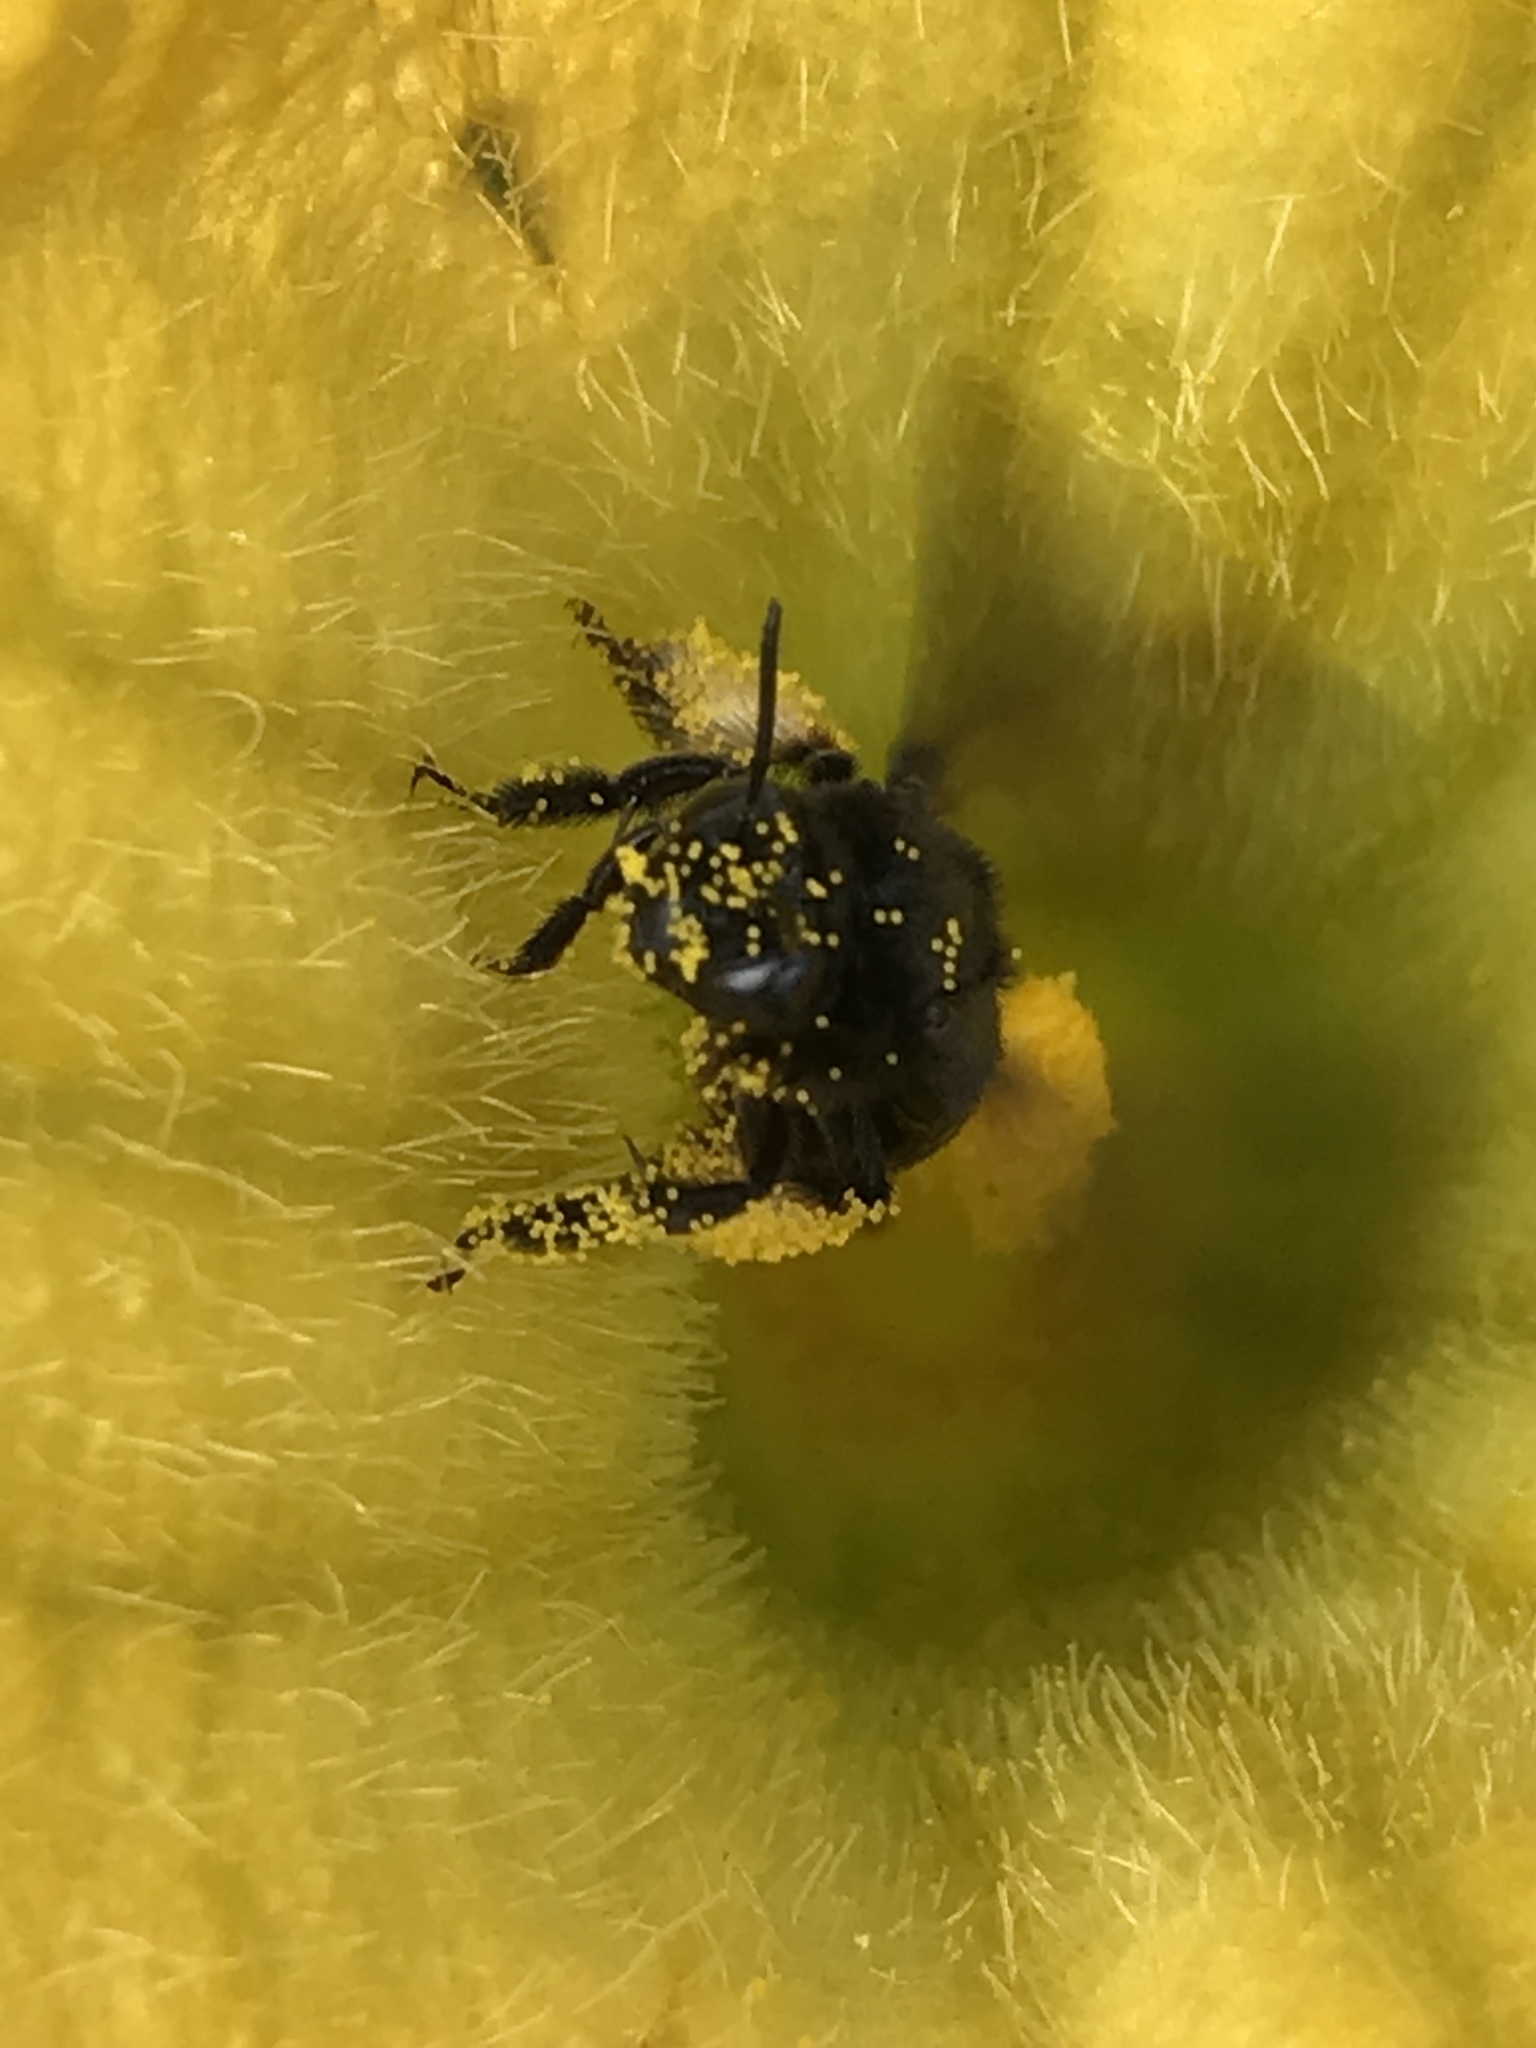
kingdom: Animalia
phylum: Arthropoda
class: Insecta
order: Hymenoptera
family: Apidae
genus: Melissodes
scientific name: Melissodes bimaculatus
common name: Two-spotted long-horned bee
